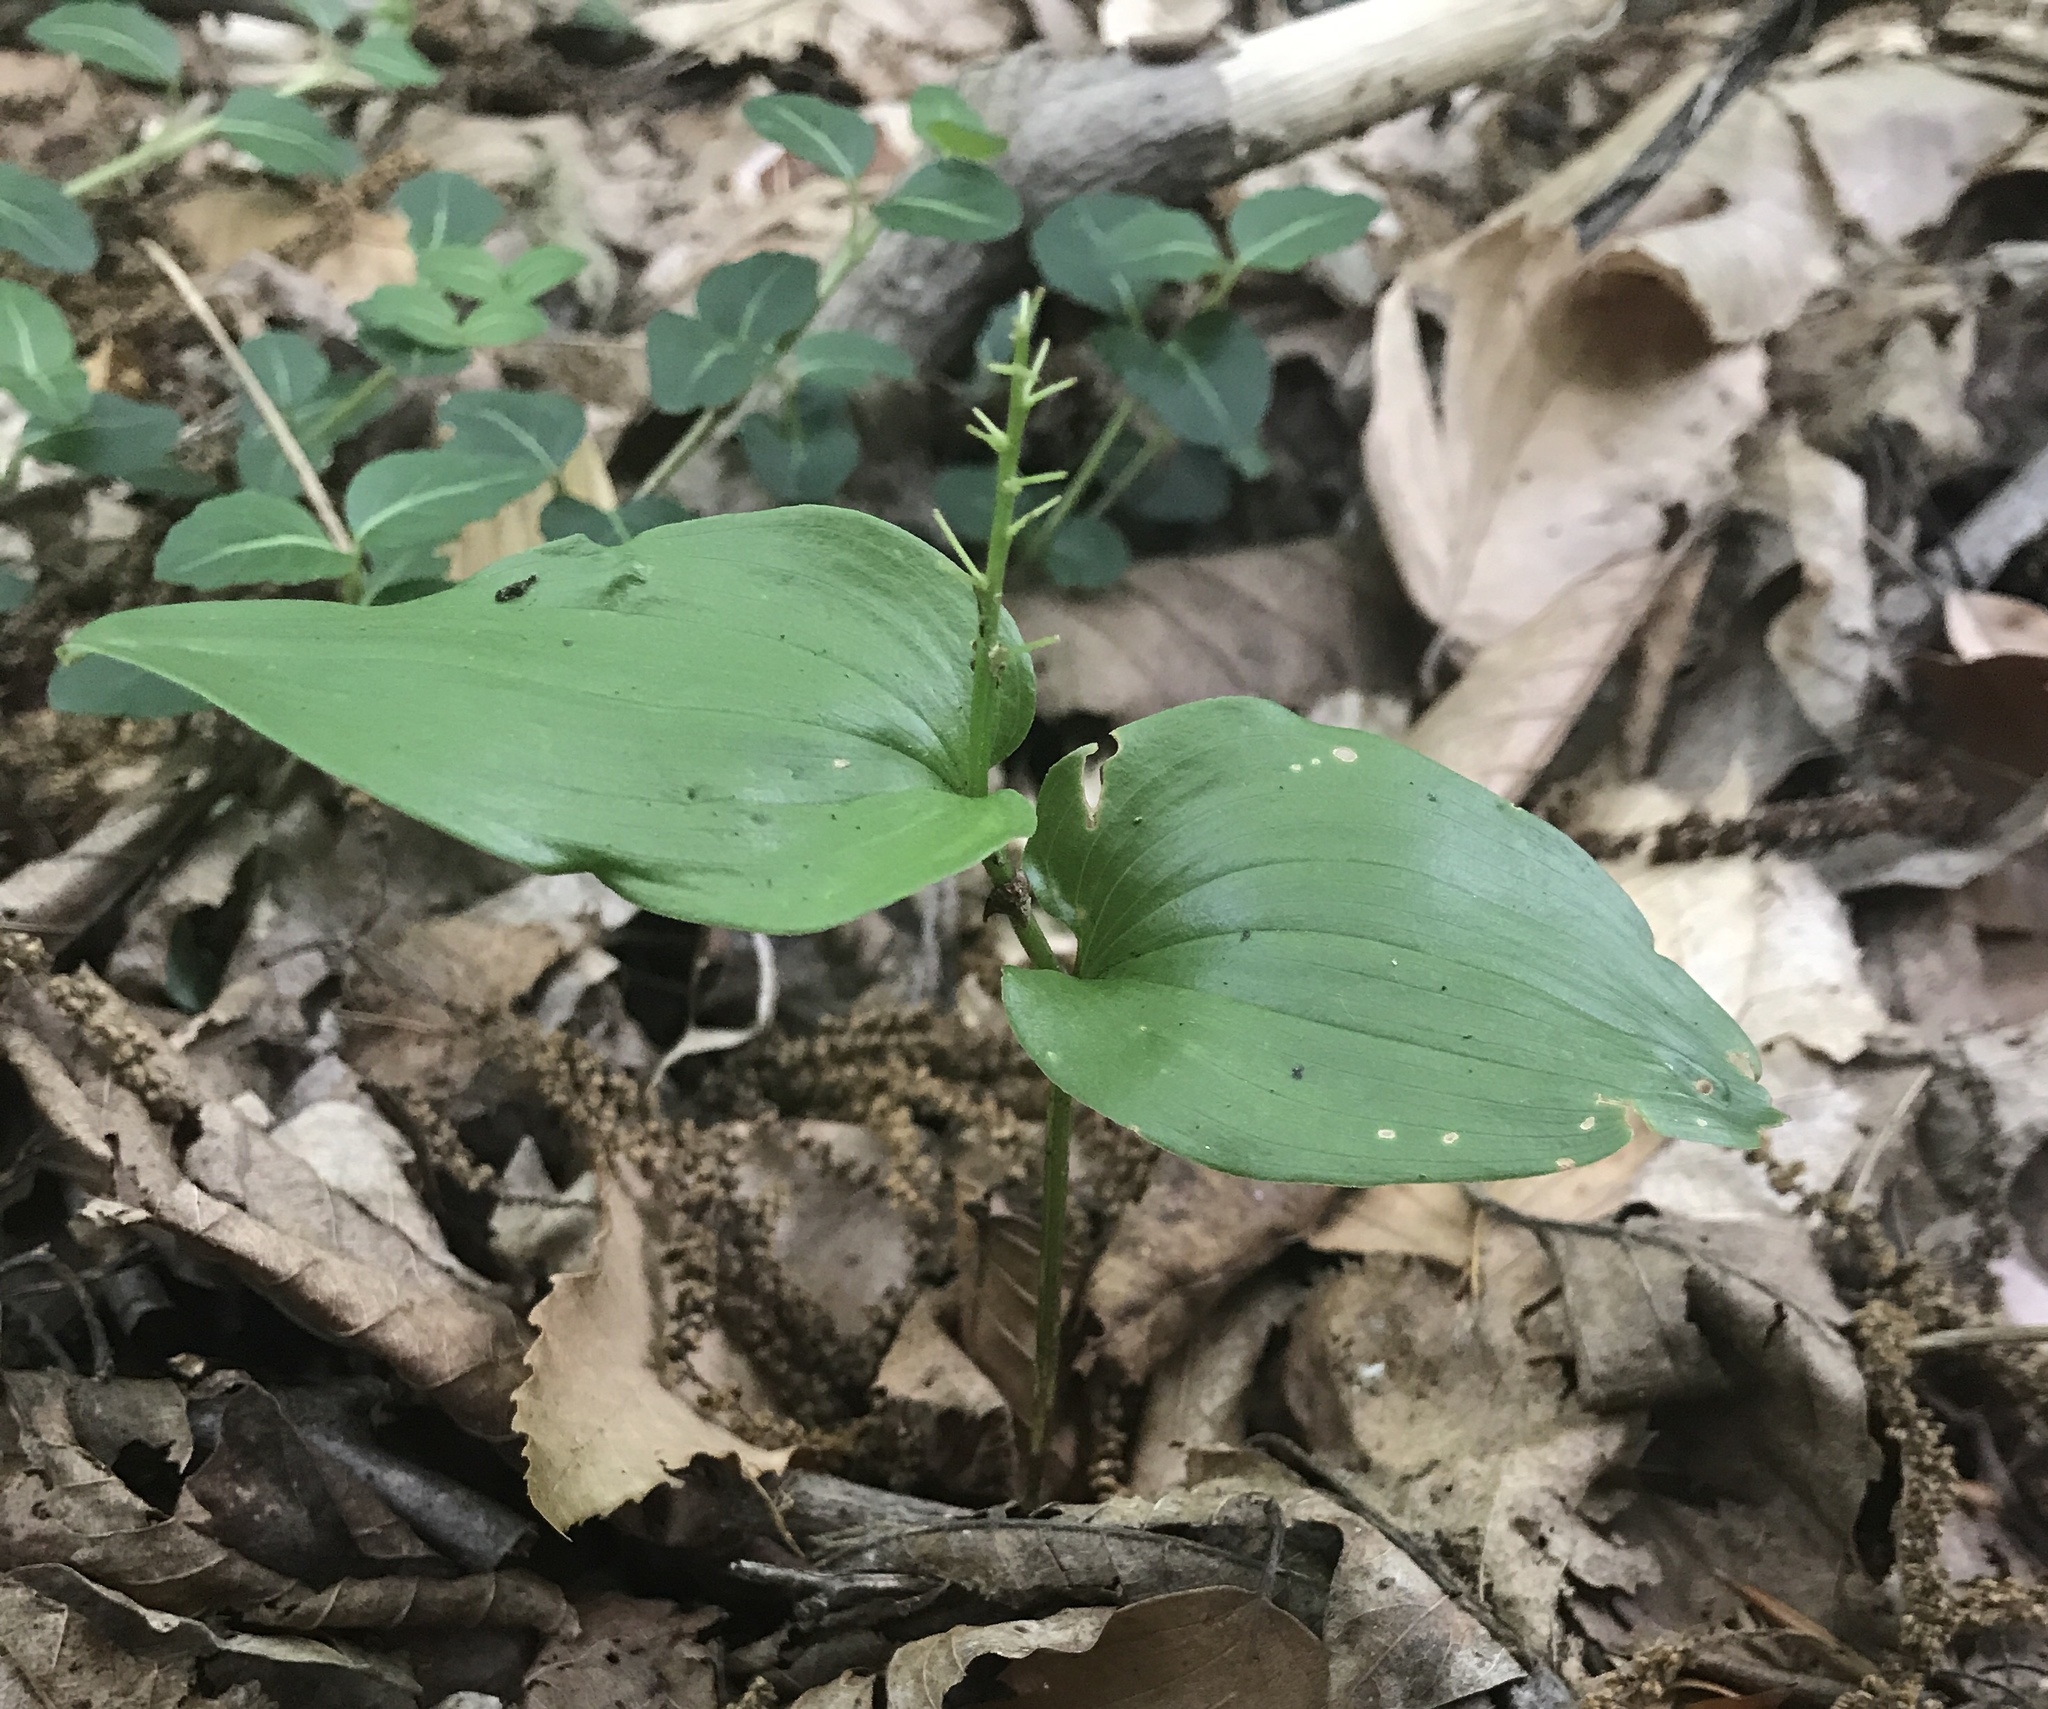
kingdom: Plantae
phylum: Tracheophyta
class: Liliopsida
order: Asparagales
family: Asparagaceae
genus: Maianthemum
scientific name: Maianthemum canadense
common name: False lily-of-the-valley
